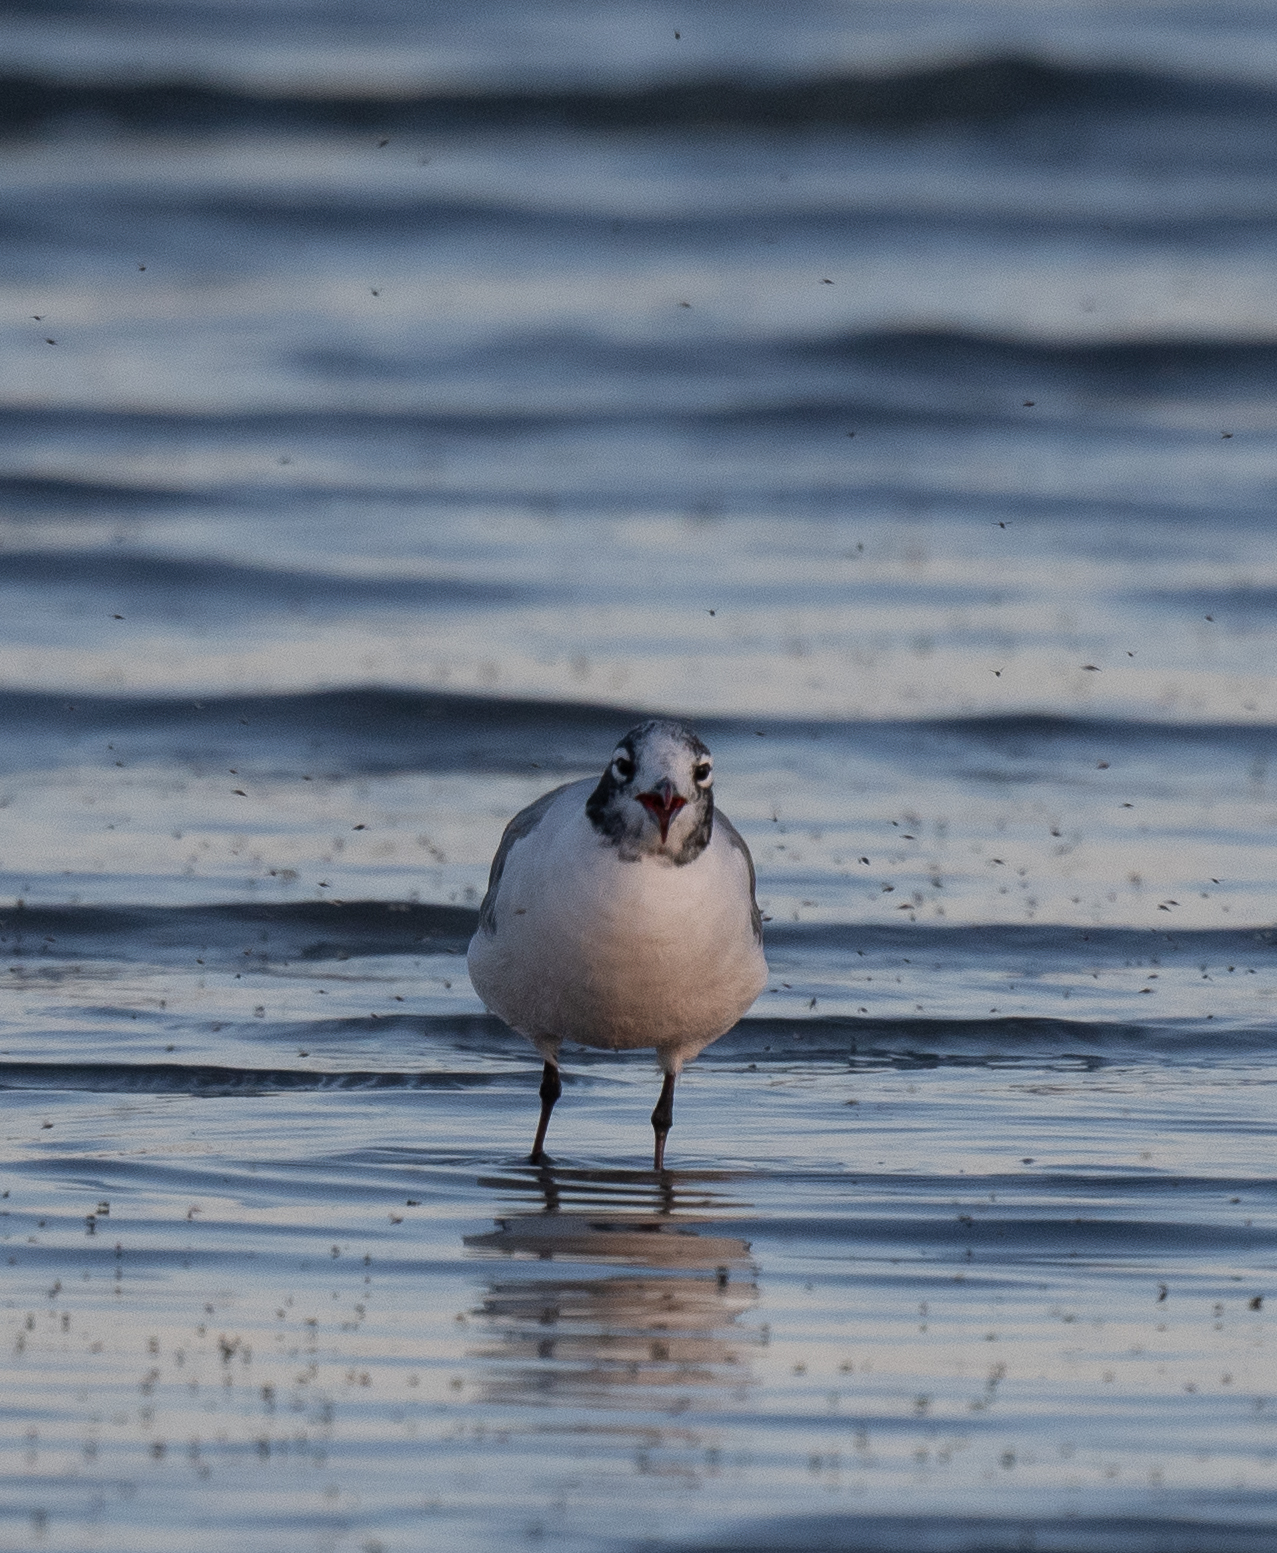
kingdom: Animalia
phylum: Chordata
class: Aves
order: Charadriiformes
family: Laridae
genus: Leucophaeus
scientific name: Leucophaeus pipixcan
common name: Franklin's gull
